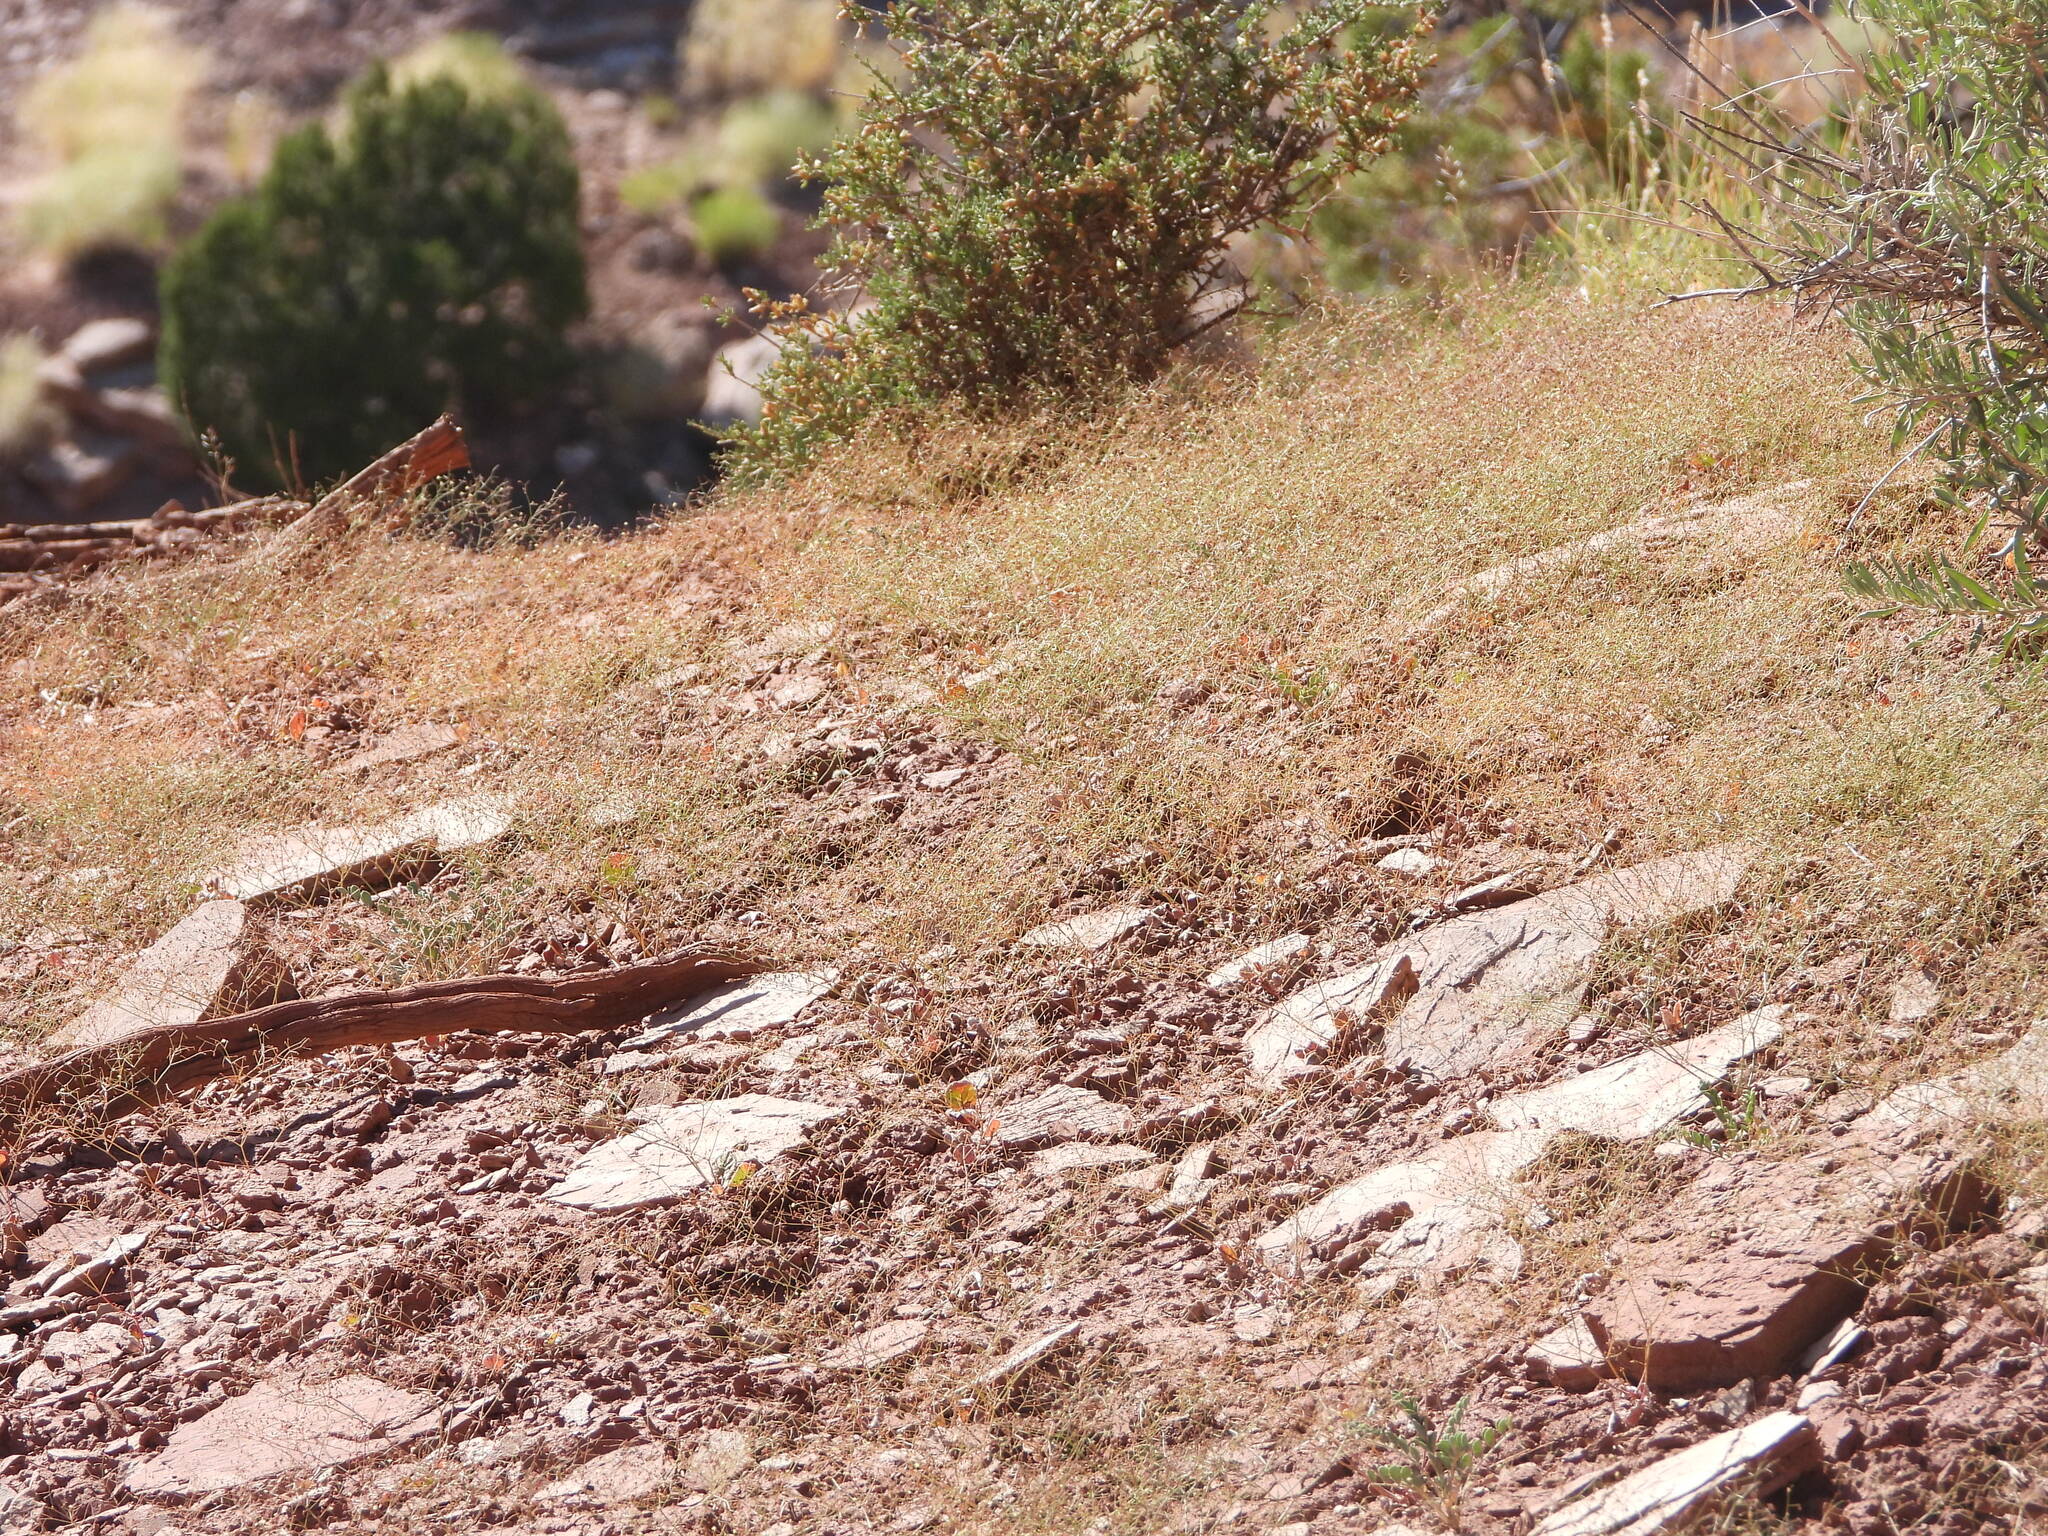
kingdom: Plantae
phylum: Tracheophyta
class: Magnoliopsida
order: Caryophyllales
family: Polygonaceae
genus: Eriogonum
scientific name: Eriogonum wetherillii
